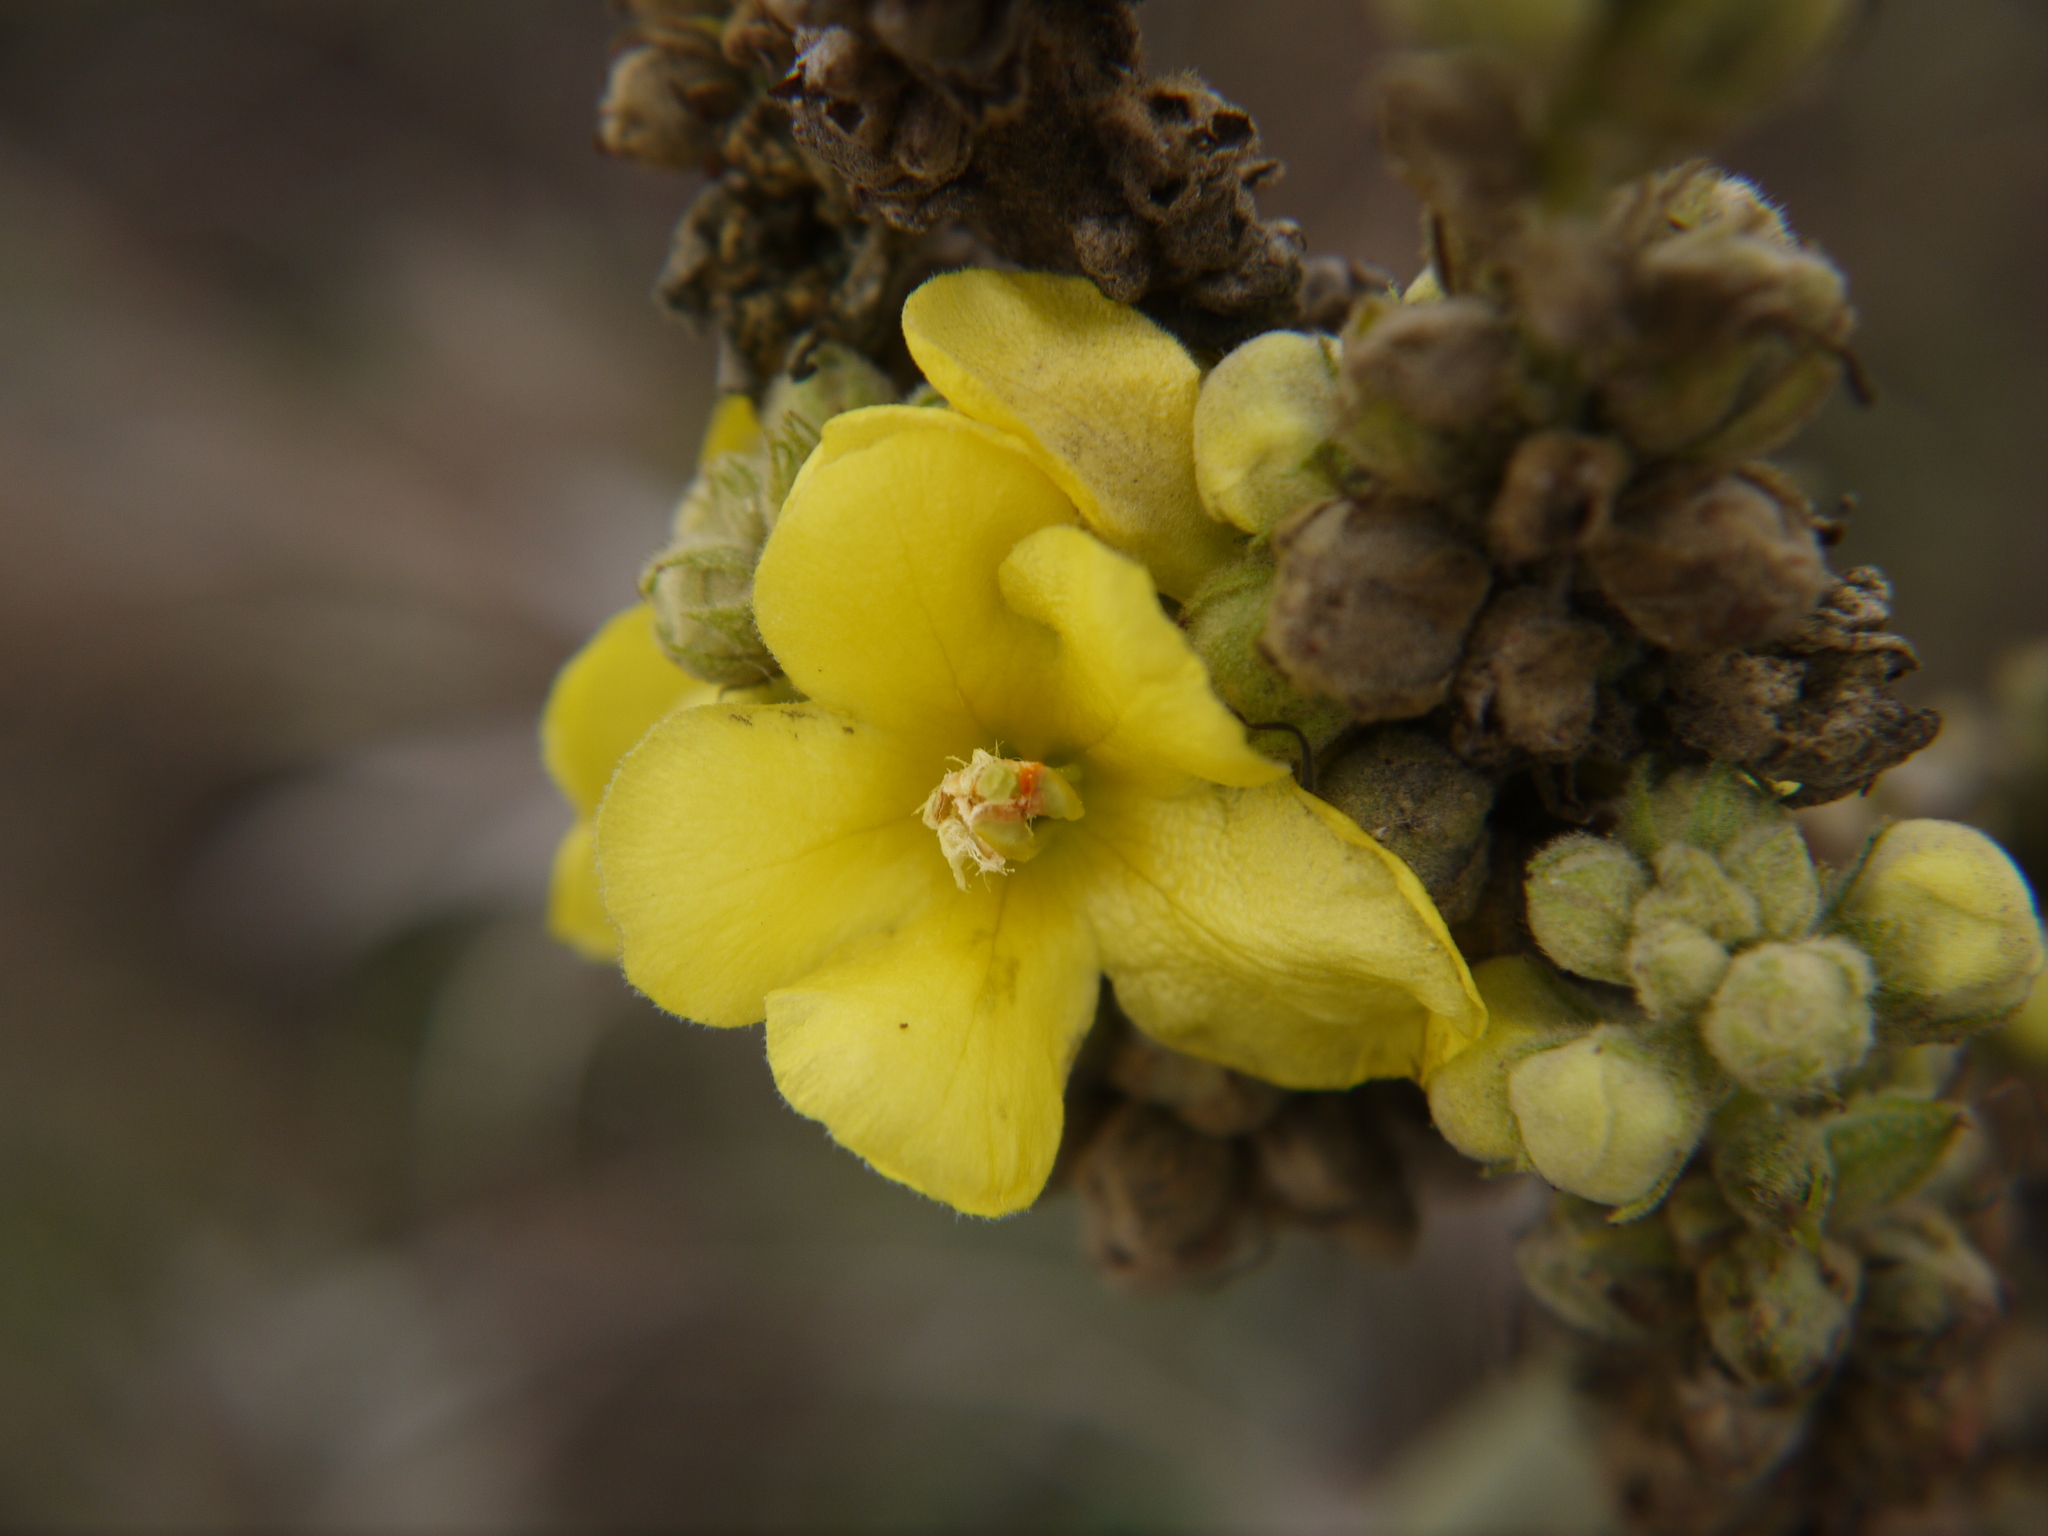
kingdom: Plantae
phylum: Tracheophyta
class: Magnoliopsida
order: Lamiales
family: Scrophulariaceae
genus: Verbascum
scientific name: Verbascum thapsus
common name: Common mullein
